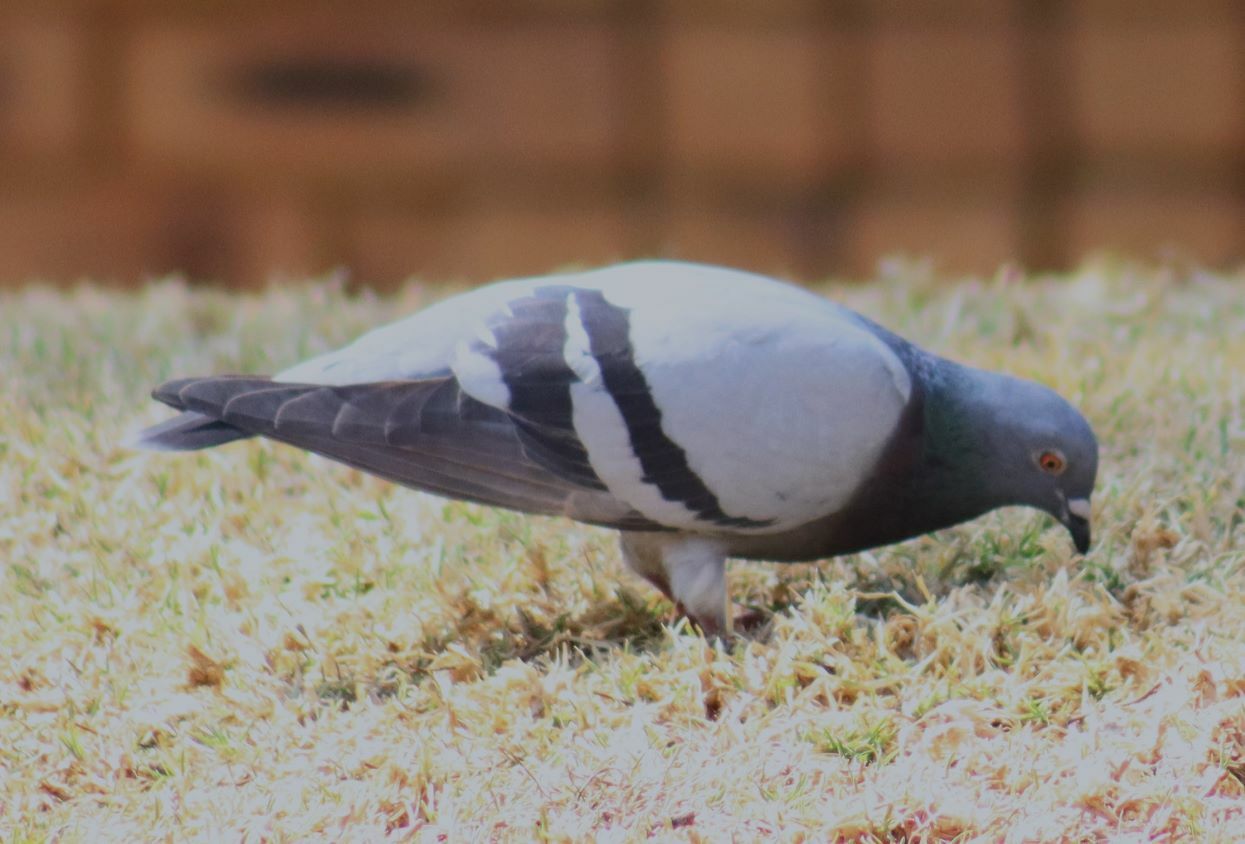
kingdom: Animalia
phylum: Chordata
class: Aves
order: Columbiformes
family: Columbidae
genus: Columba
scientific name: Columba livia
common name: Rock pigeon
